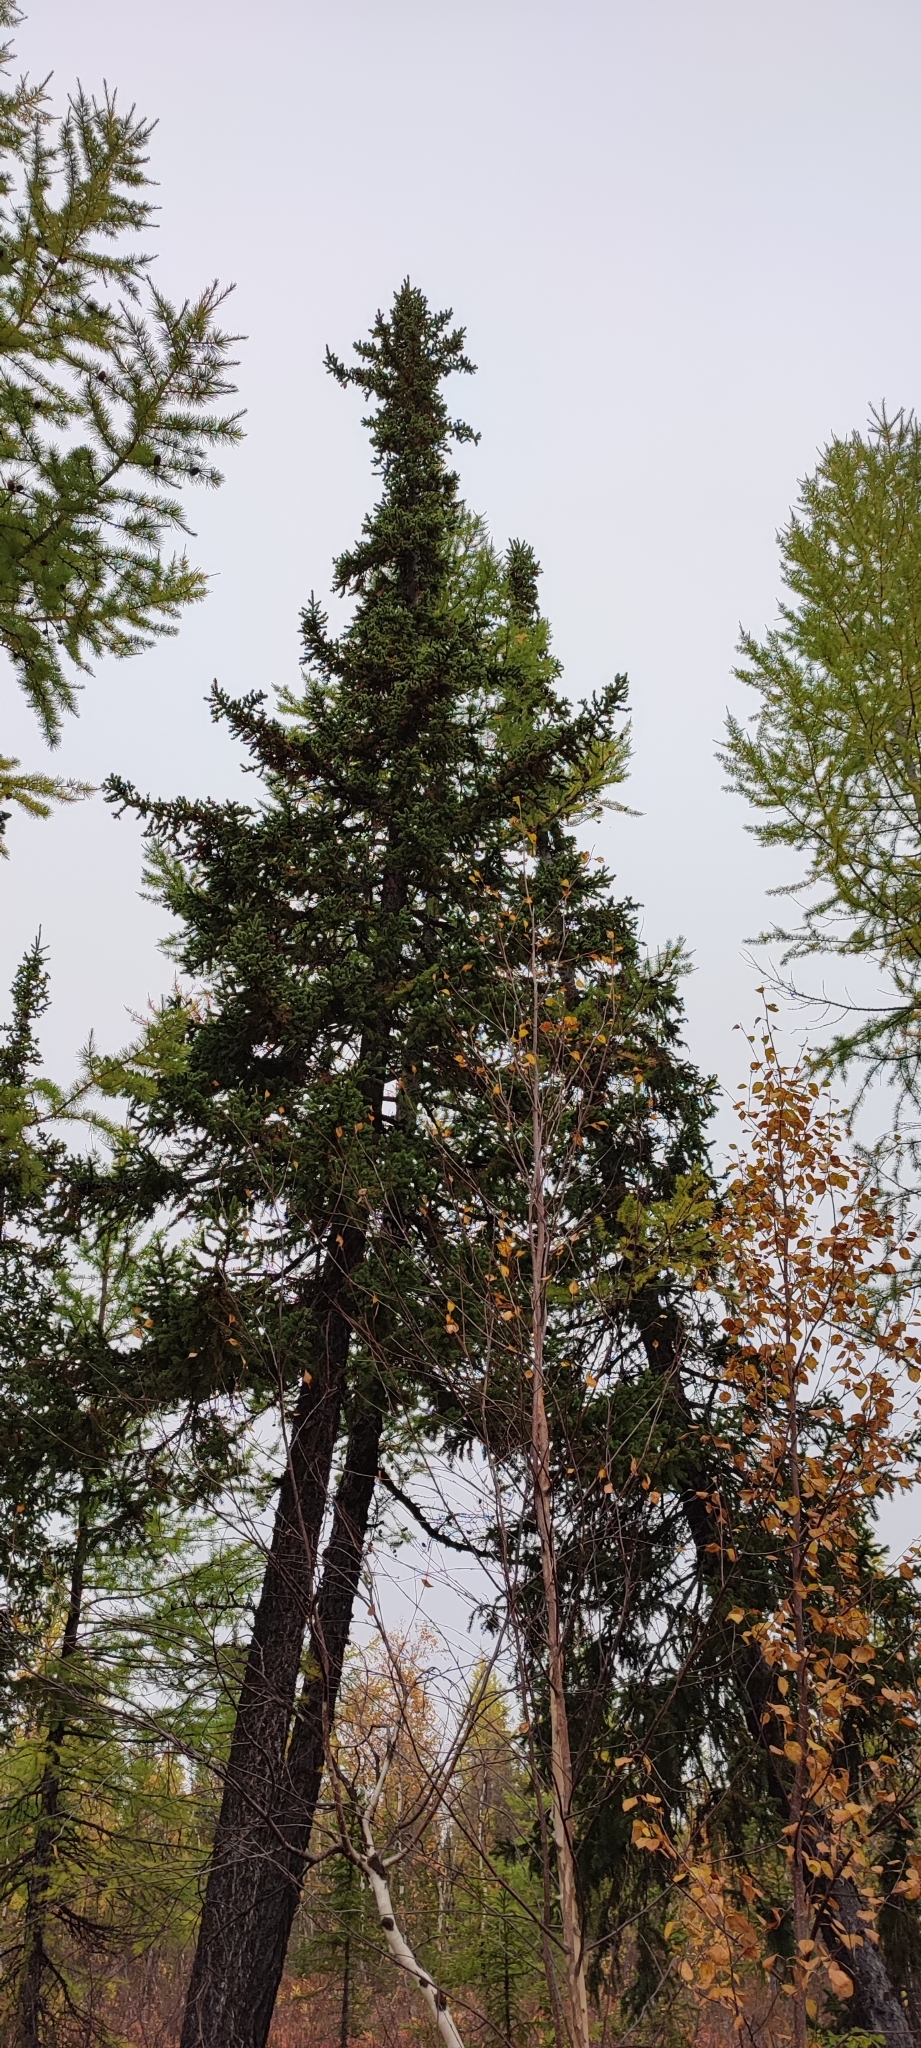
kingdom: Plantae
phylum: Tracheophyta
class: Pinopsida
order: Pinales
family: Pinaceae
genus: Picea
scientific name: Picea obovata
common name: Siberian spruce
